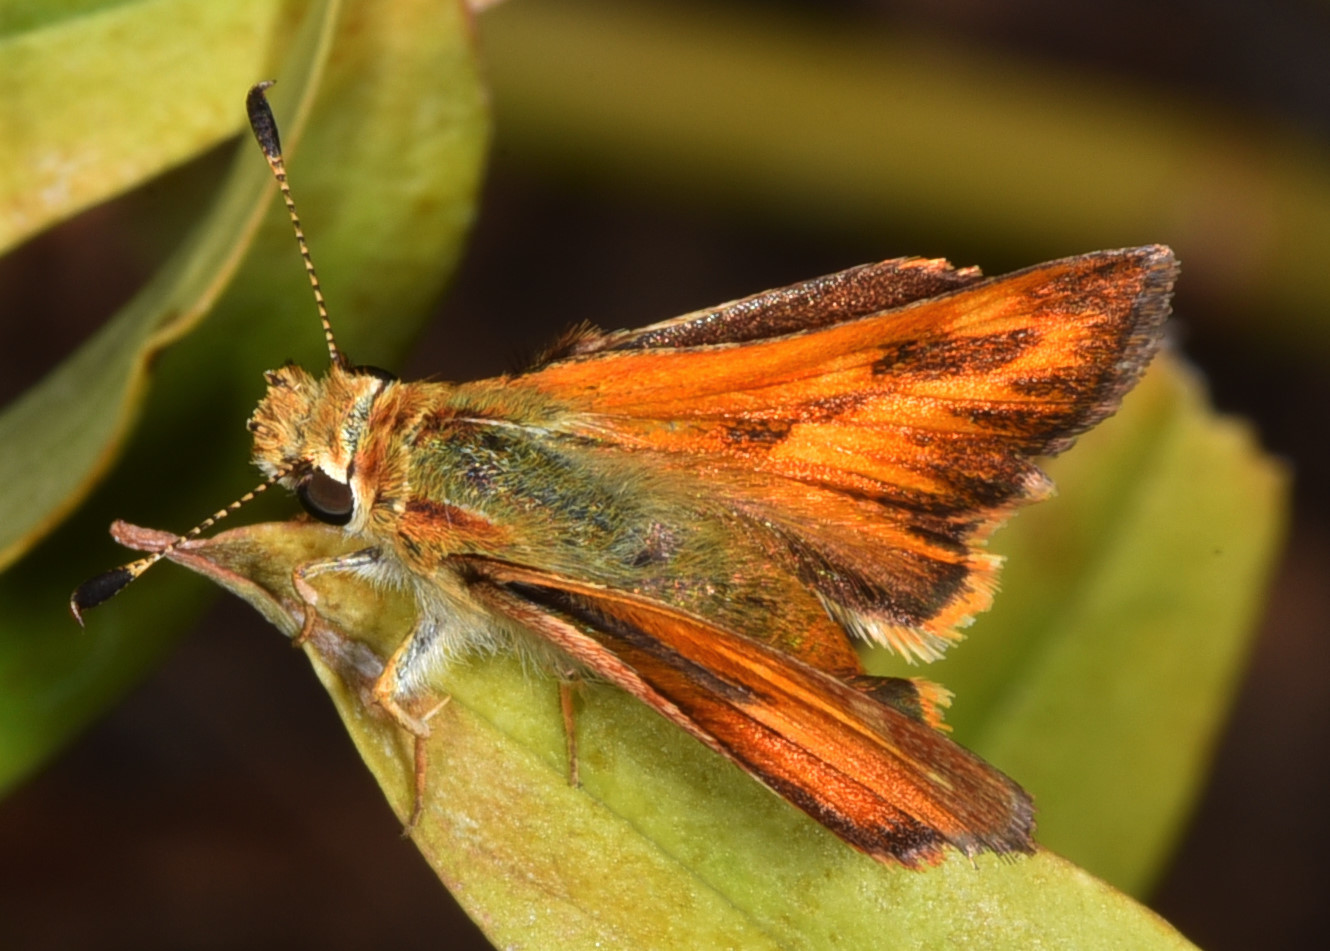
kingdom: Animalia
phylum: Arthropoda
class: Insecta
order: Lepidoptera
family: Hesperiidae
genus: Ochlodes
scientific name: Ochlodes sylvanoides
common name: Woodland skipper
